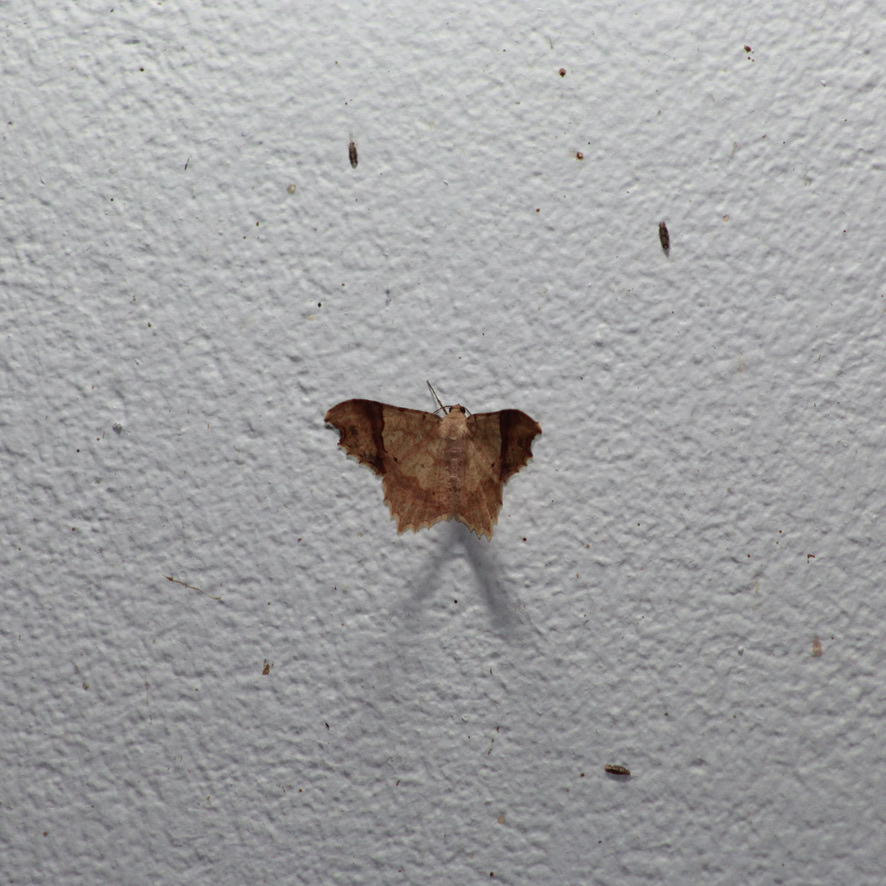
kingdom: Animalia
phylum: Arthropoda
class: Insecta
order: Lepidoptera
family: Geometridae
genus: Macaria
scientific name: Macaria gambarina
